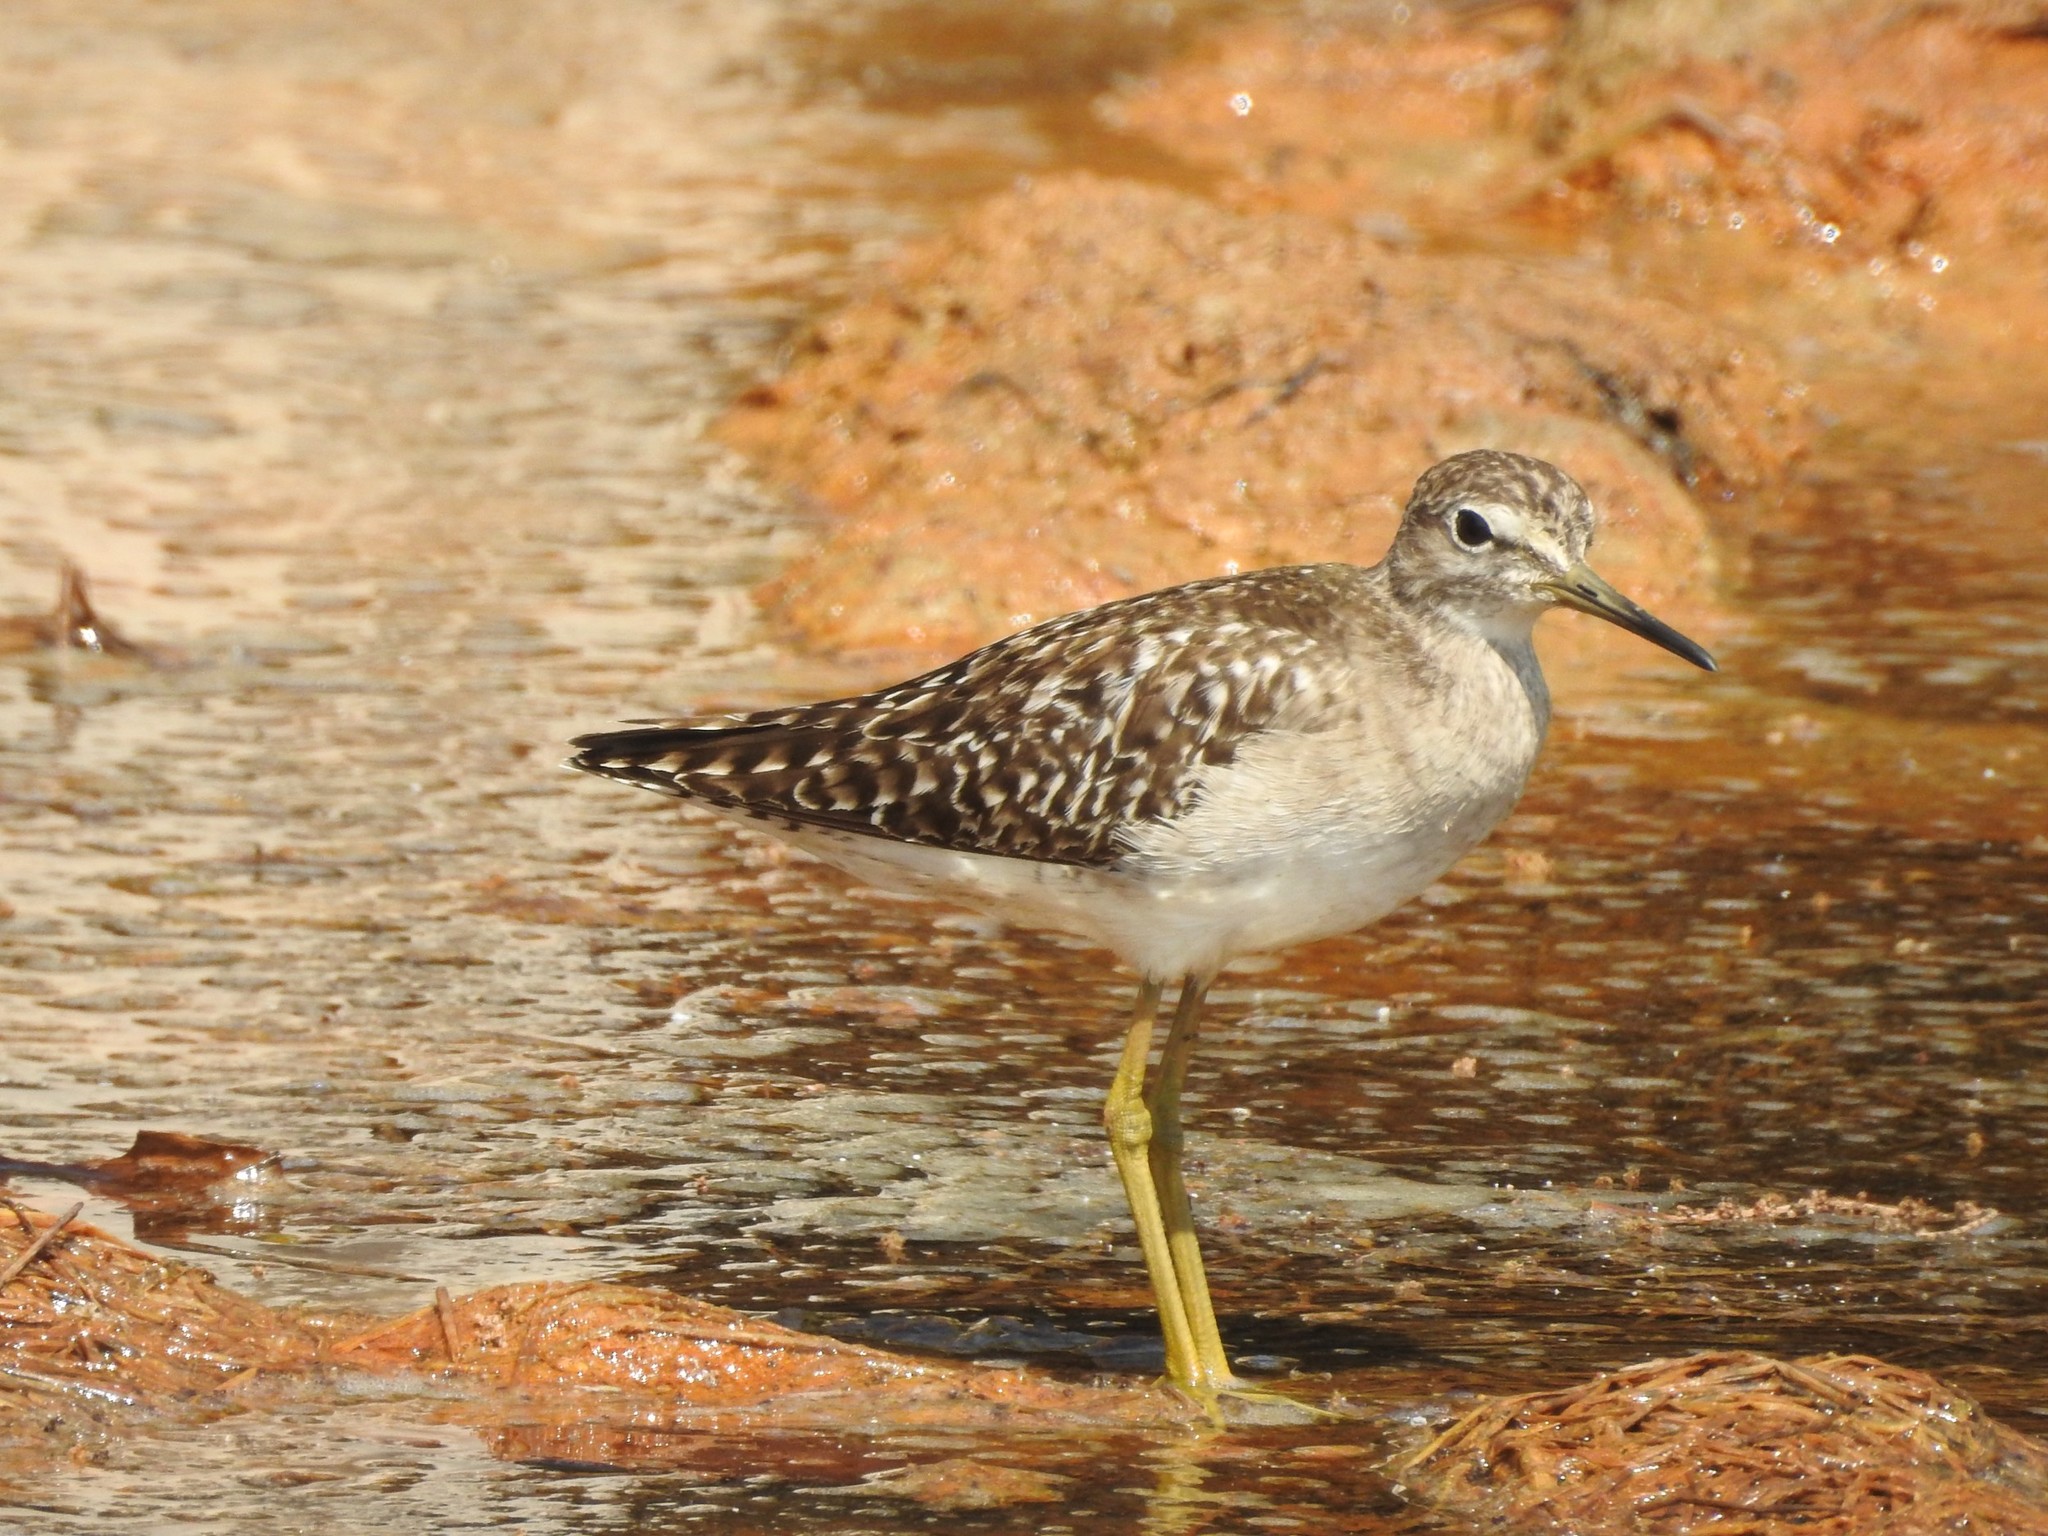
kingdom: Animalia
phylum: Chordata
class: Aves
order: Charadriiformes
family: Scolopacidae
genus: Tringa
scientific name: Tringa glareola
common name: Wood sandpiper
